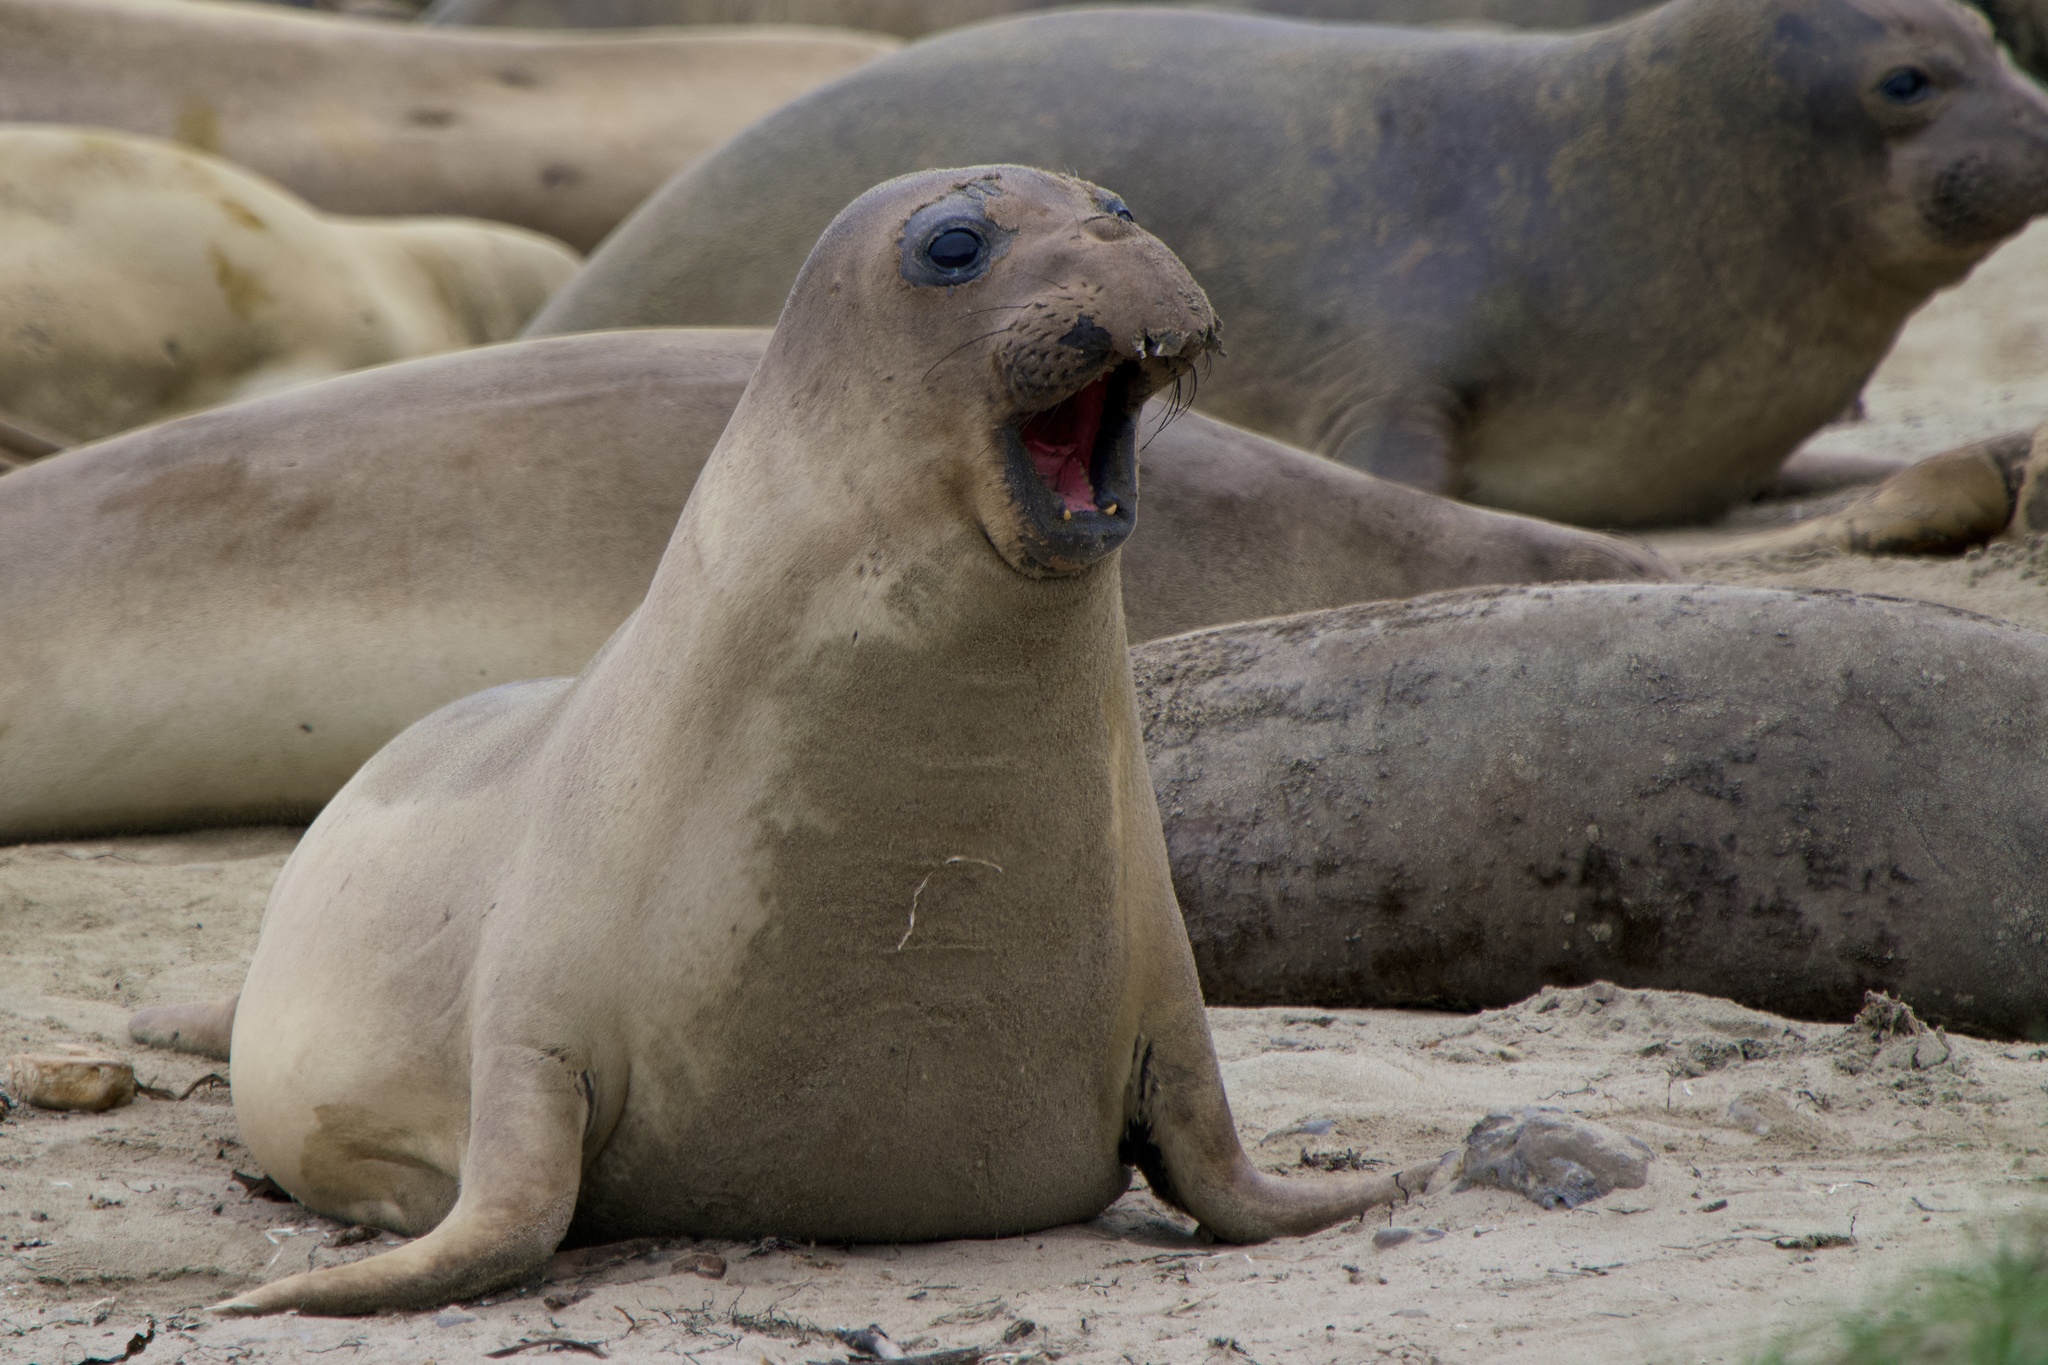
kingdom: Animalia
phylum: Chordata
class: Mammalia
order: Carnivora
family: Phocidae
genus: Mirounga
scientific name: Mirounga angustirostris
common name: Northern elephant seal
